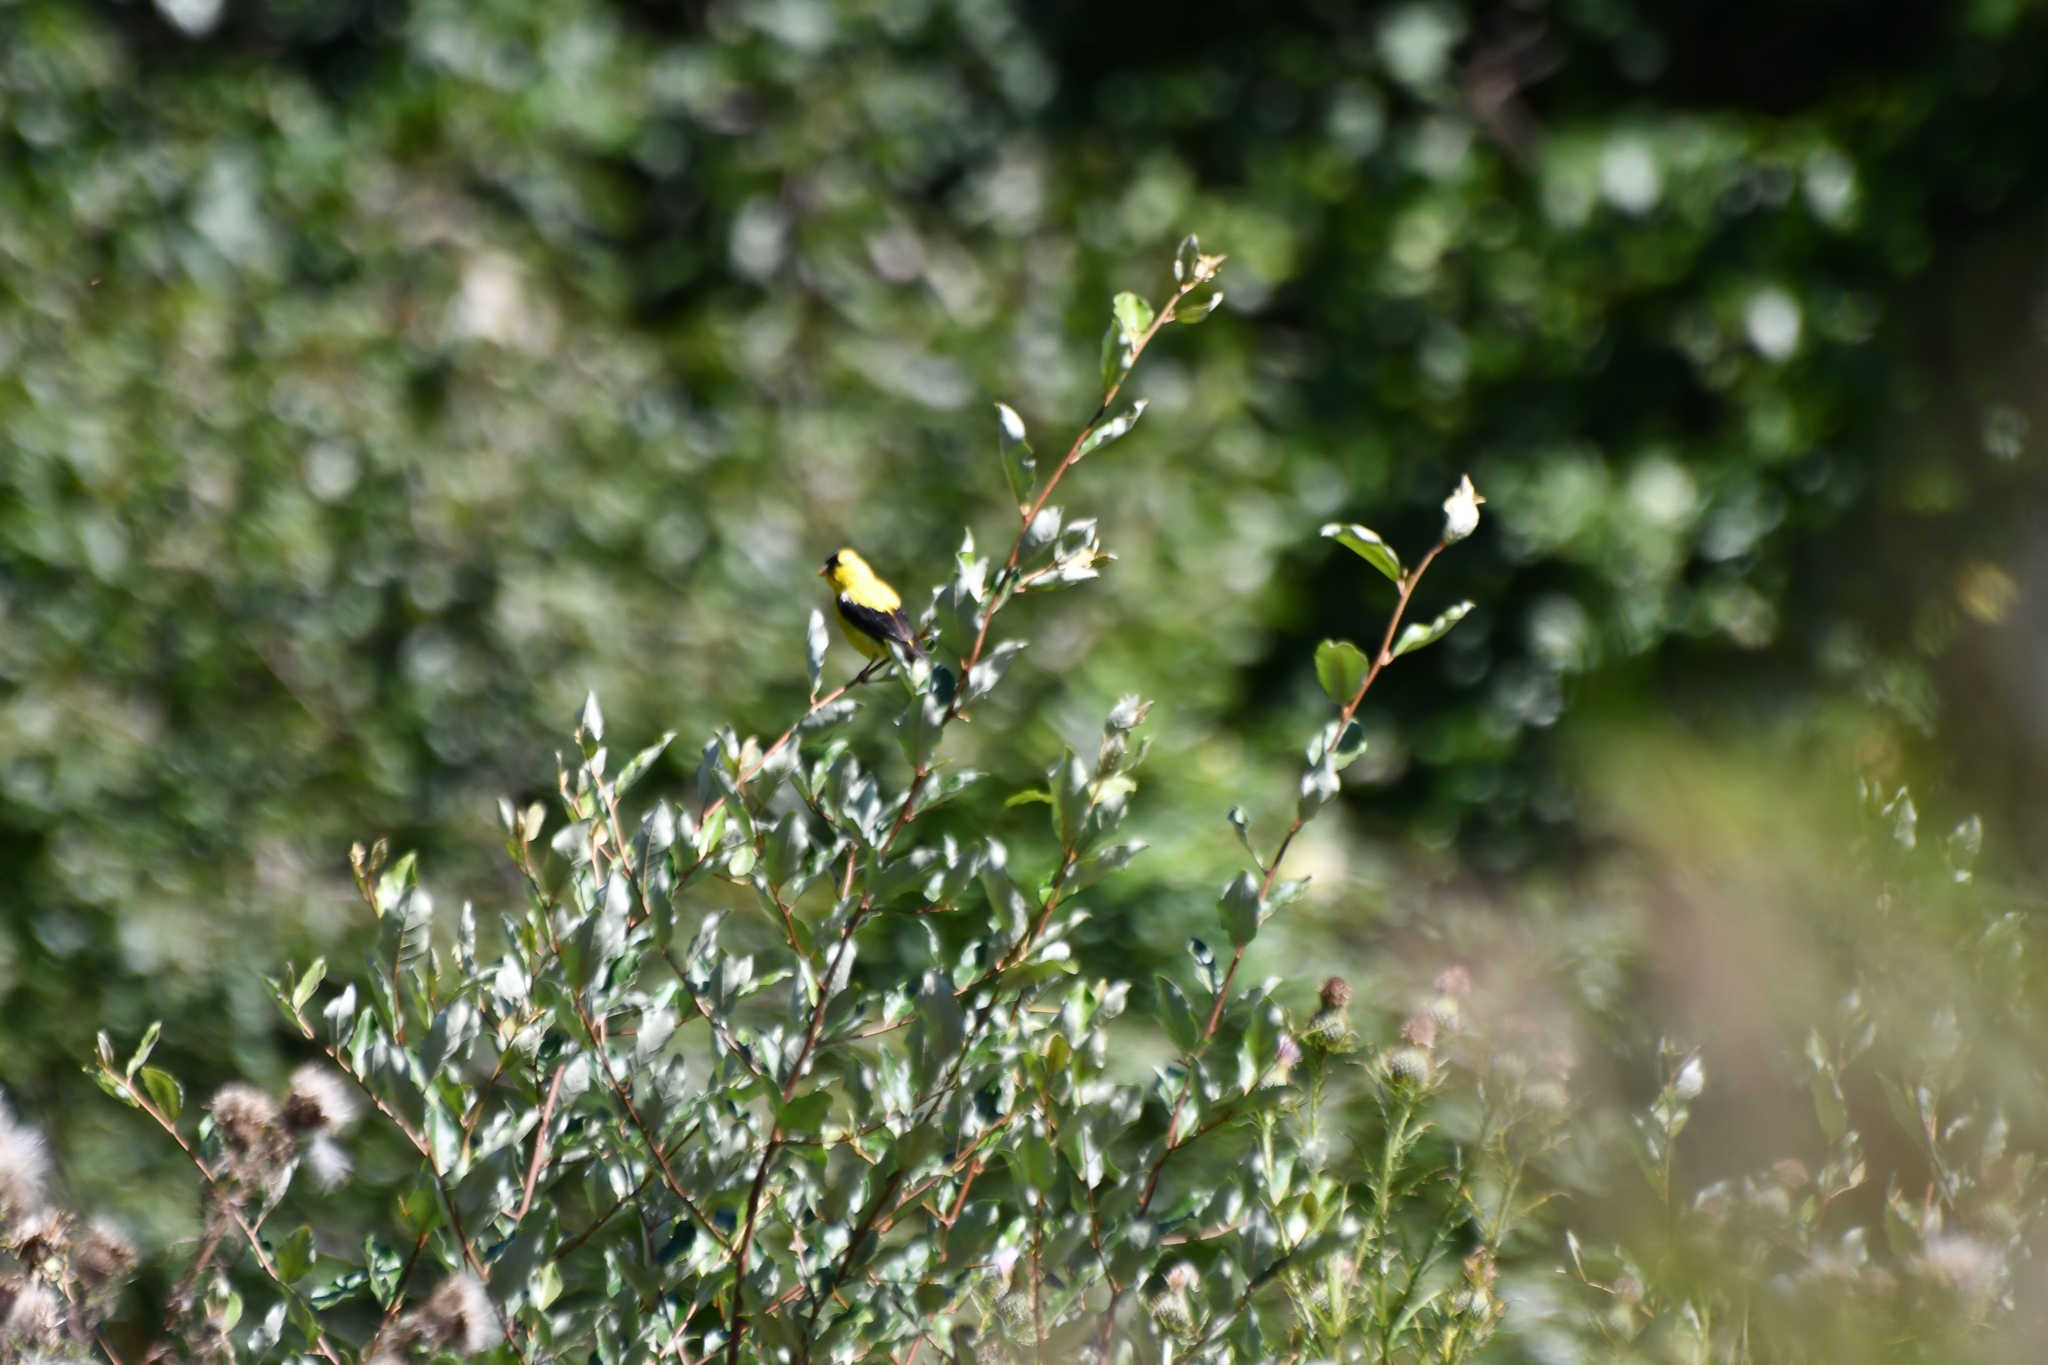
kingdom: Animalia
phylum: Chordata
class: Aves
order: Passeriformes
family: Fringillidae
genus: Spinus
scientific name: Spinus tristis
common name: American goldfinch
